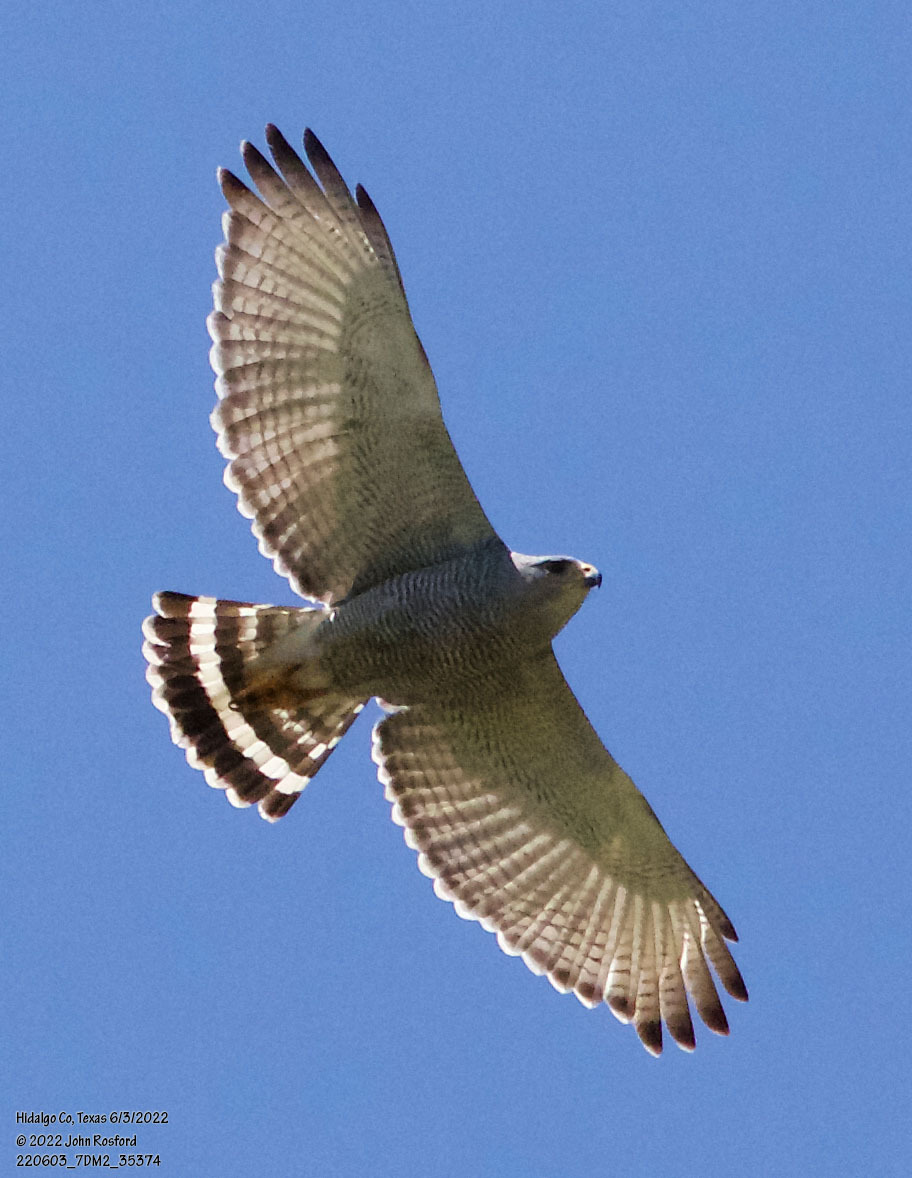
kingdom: Animalia
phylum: Chordata
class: Aves
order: Accipitriformes
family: Accipitridae
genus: Buteo
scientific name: Buteo nitidus
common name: Grey-lined hawk
